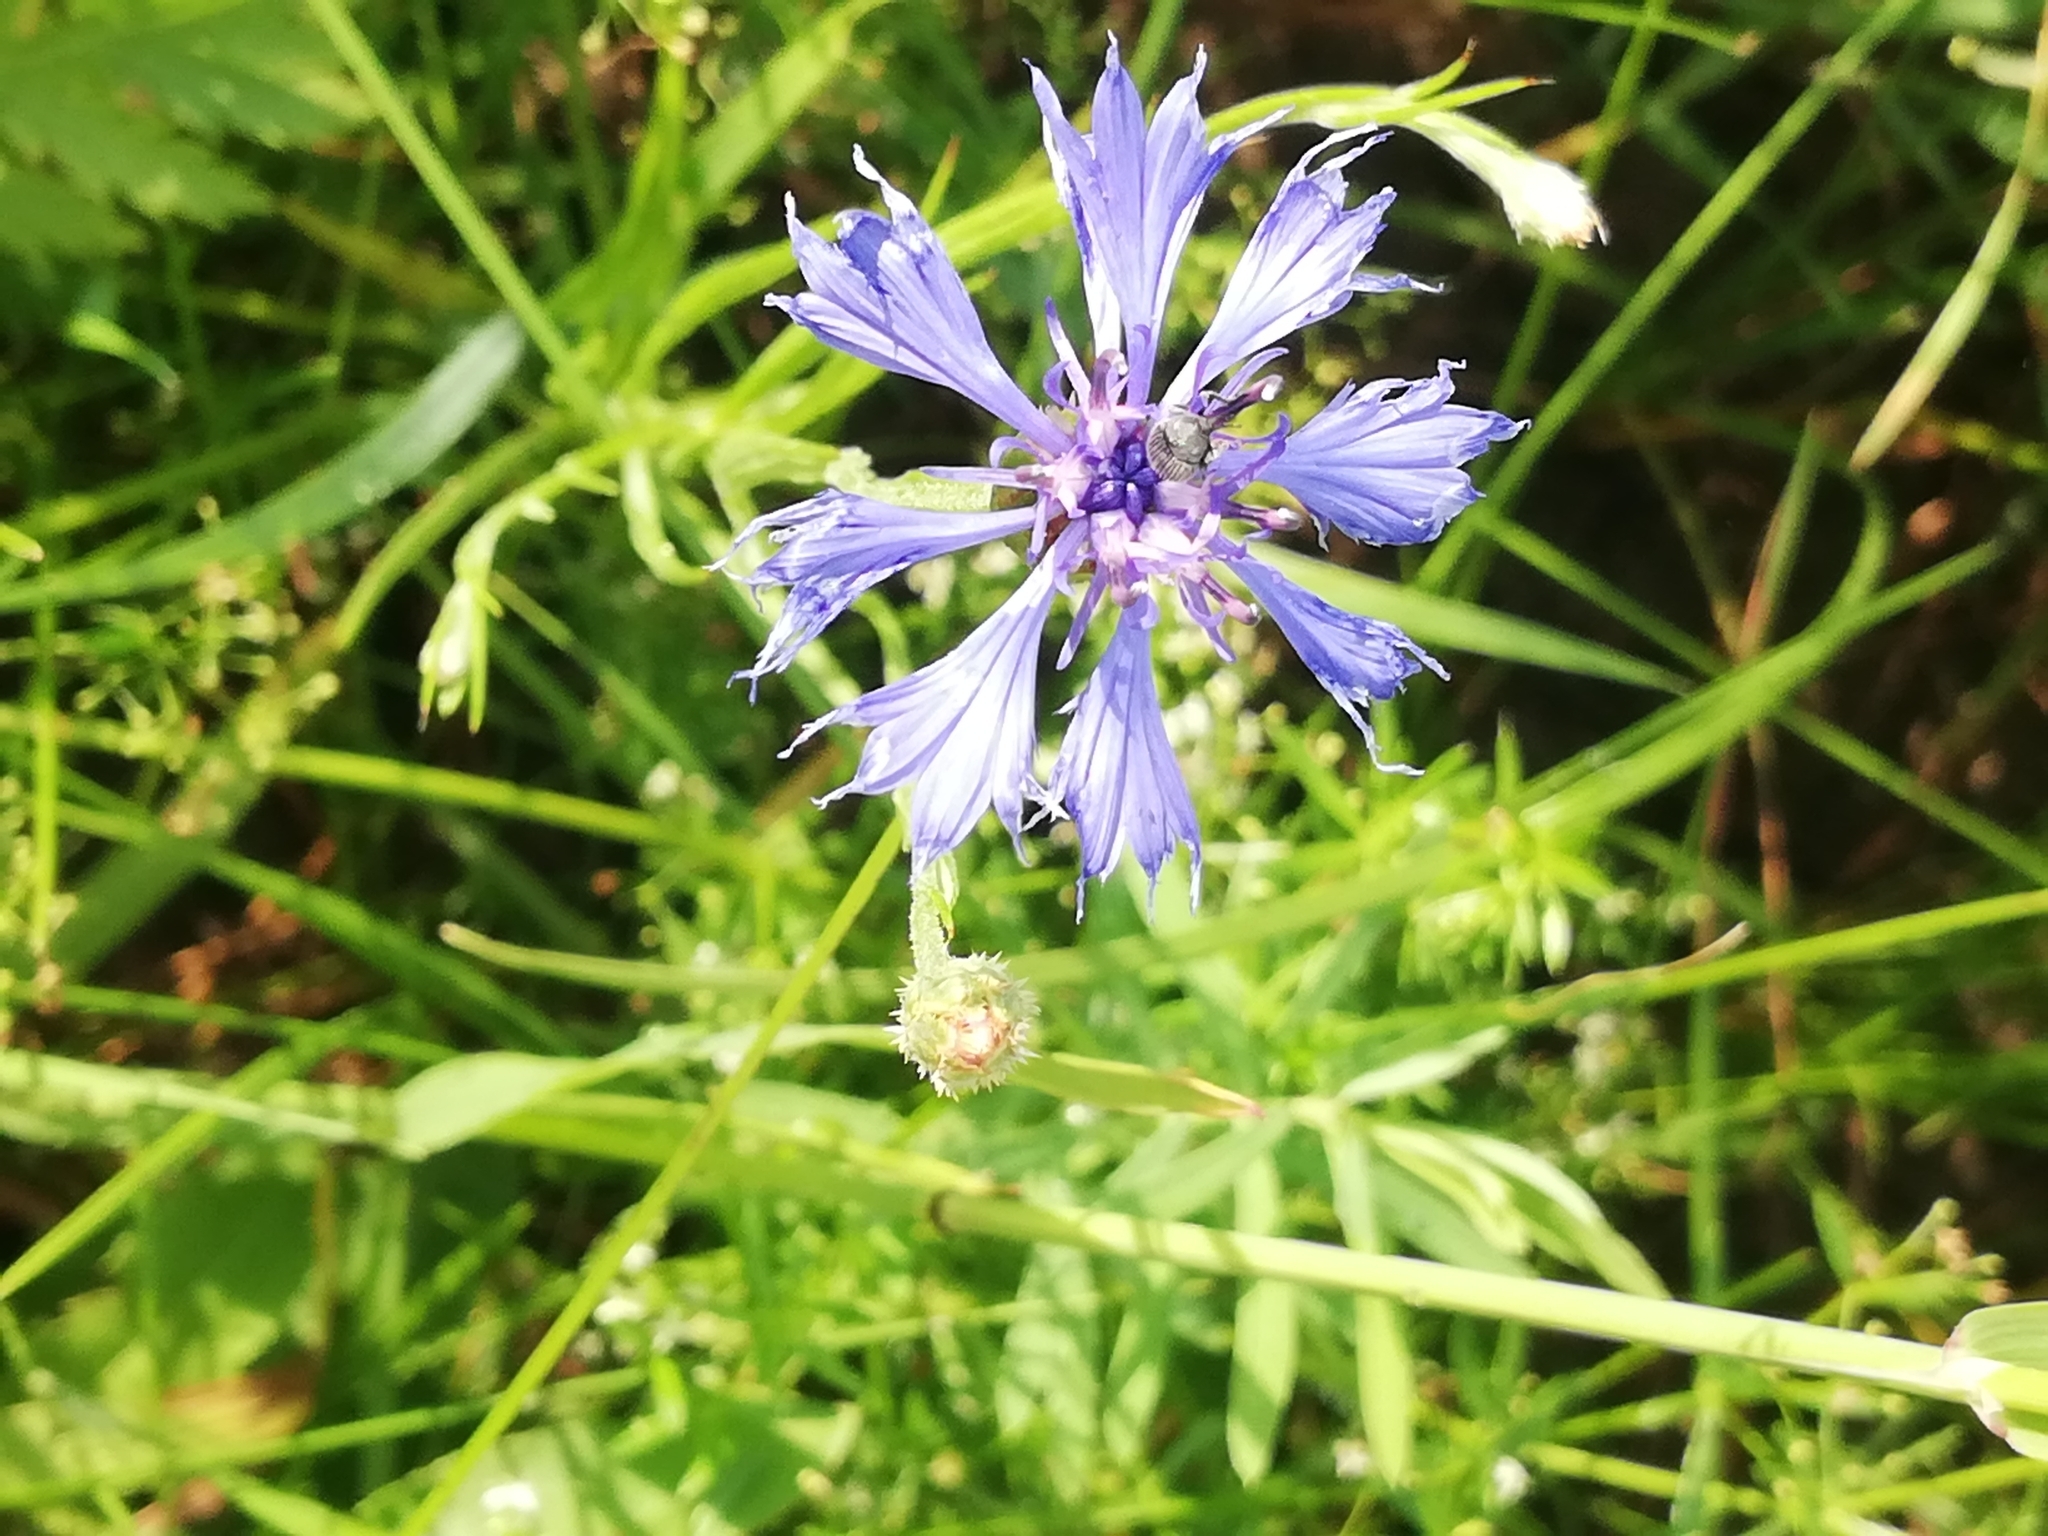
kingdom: Plantae
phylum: Tracheophyta
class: Magnoliopsida
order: Asterales
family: Asteraceae
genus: Centaurea
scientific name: Centaurea cyanus
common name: Cornflower
